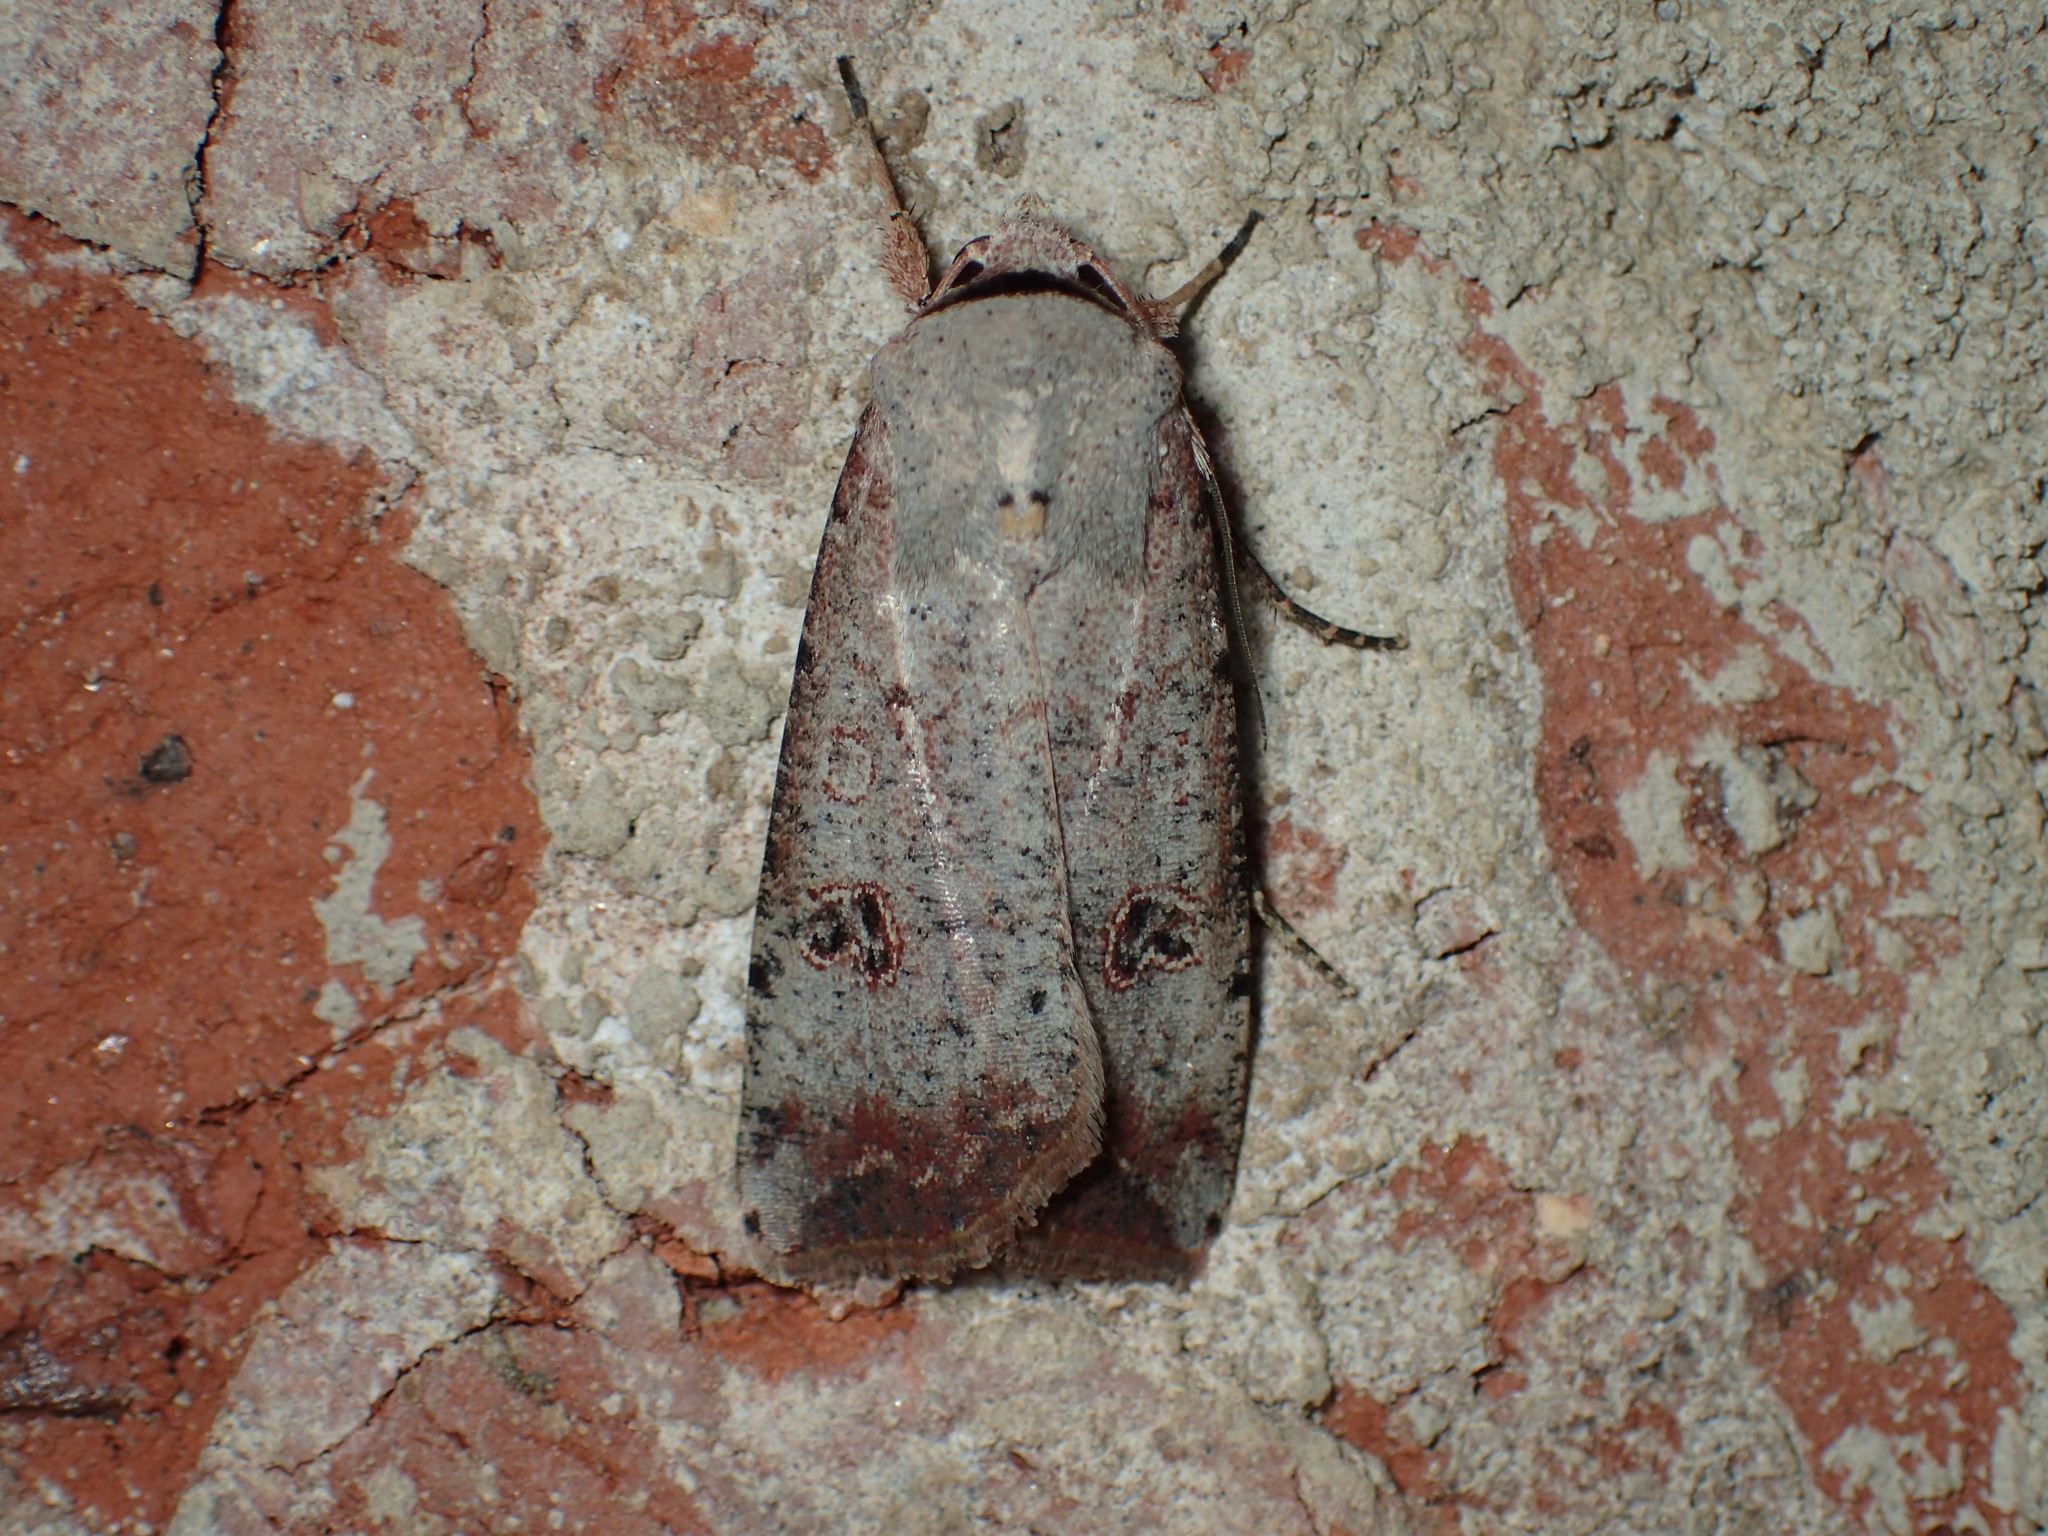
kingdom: Animalia
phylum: Arthropoda
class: Insecta
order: Lepidoptera
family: Noctuidae
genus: Anicla
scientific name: Anicla infecta
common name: Green cutworm
